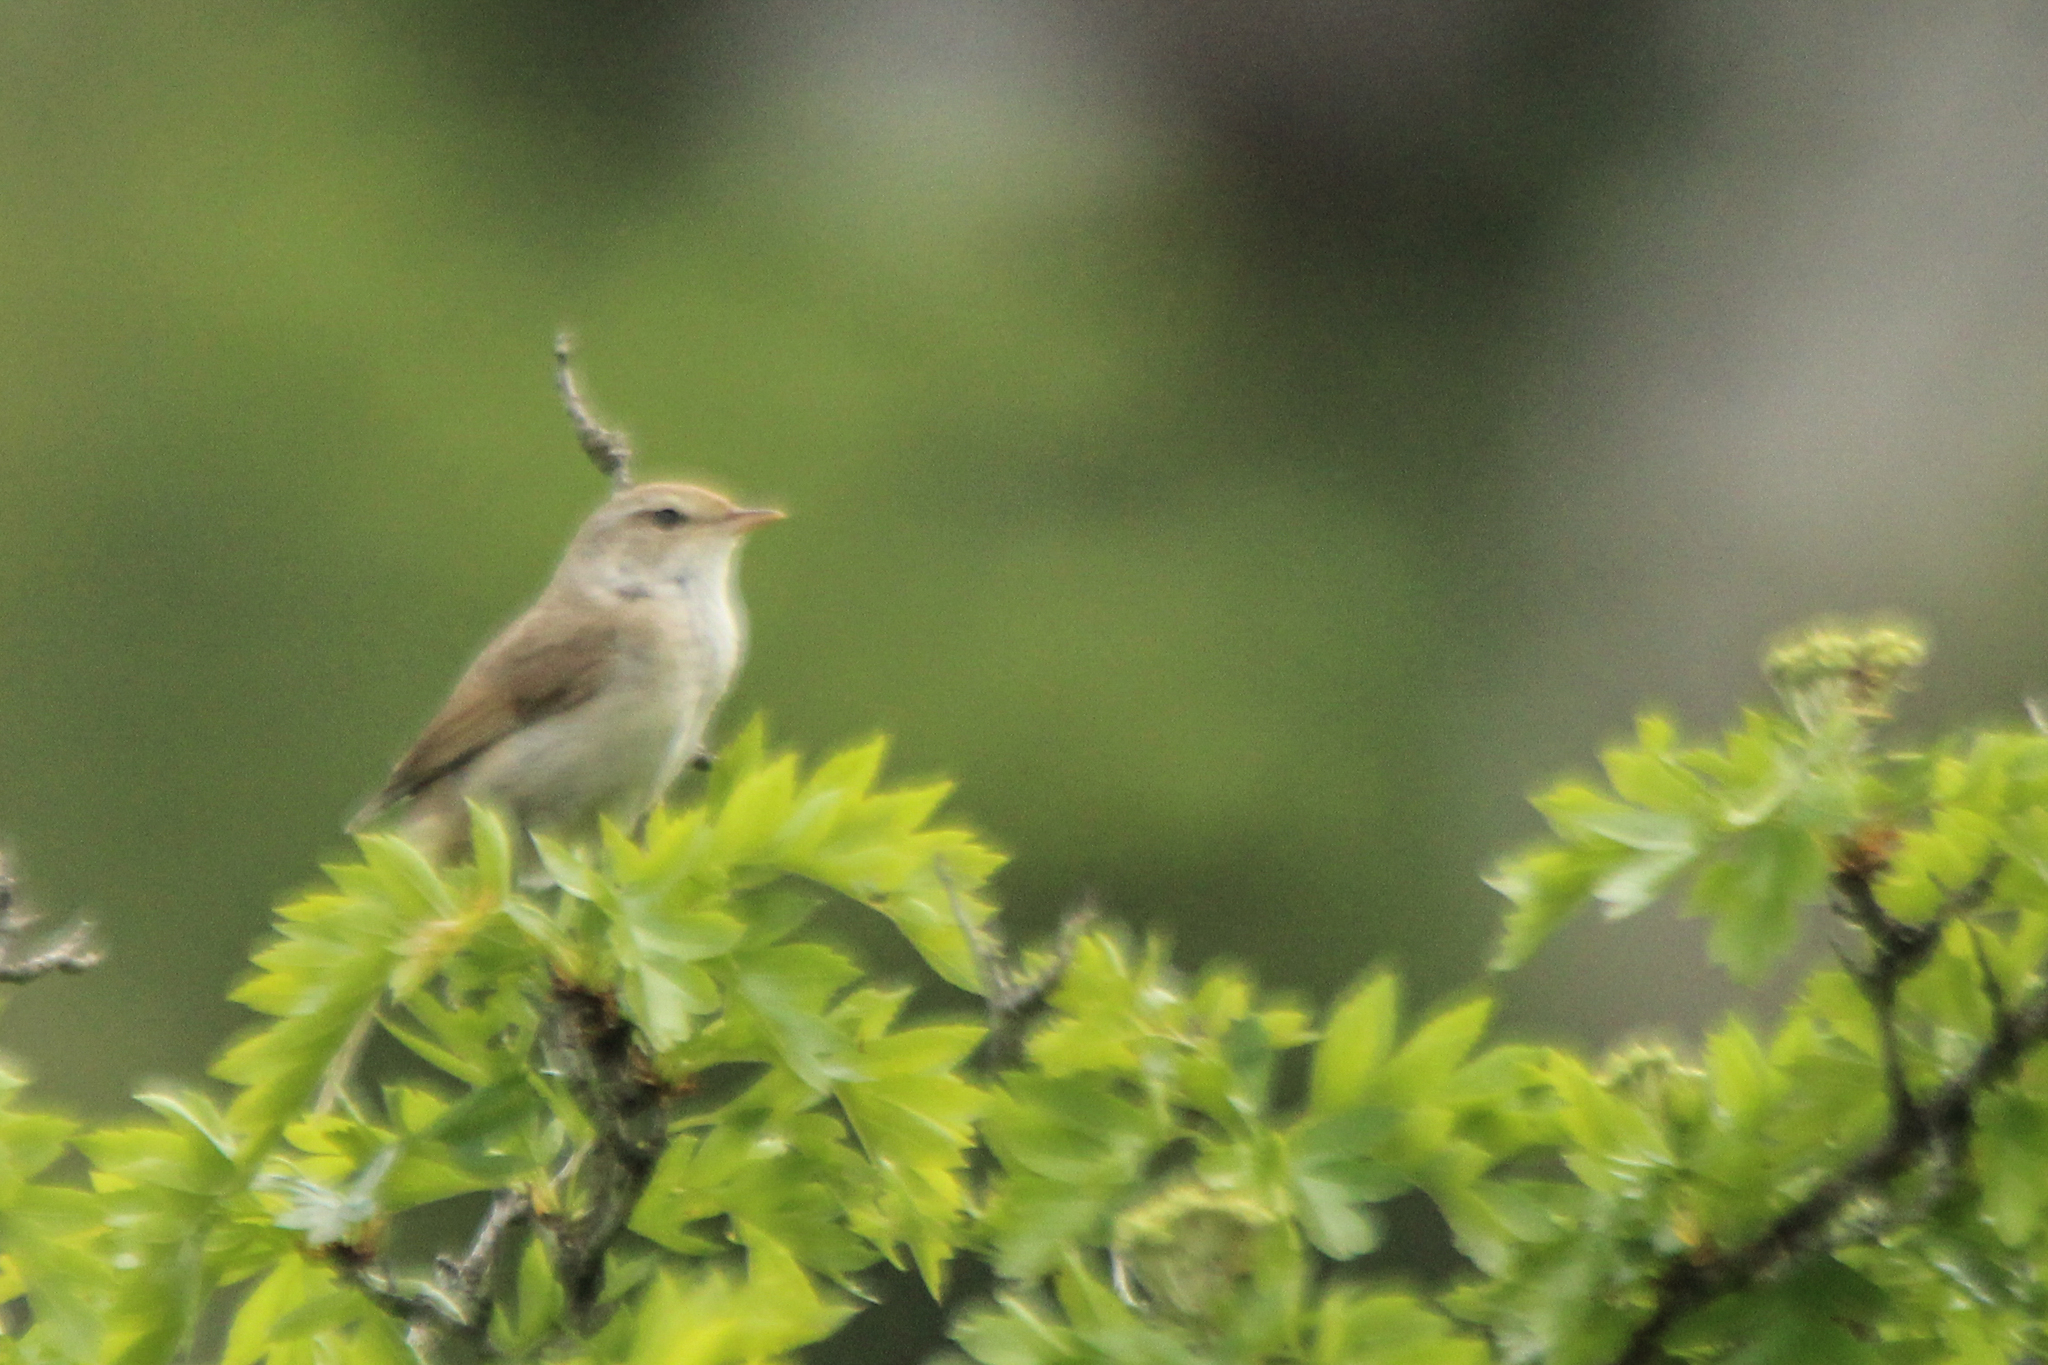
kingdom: Animalia
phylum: Chordata
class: Aves
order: Passeriformes
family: Cettiidae
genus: Horornis
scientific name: Horornis diphone
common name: Japanese bush warbler
